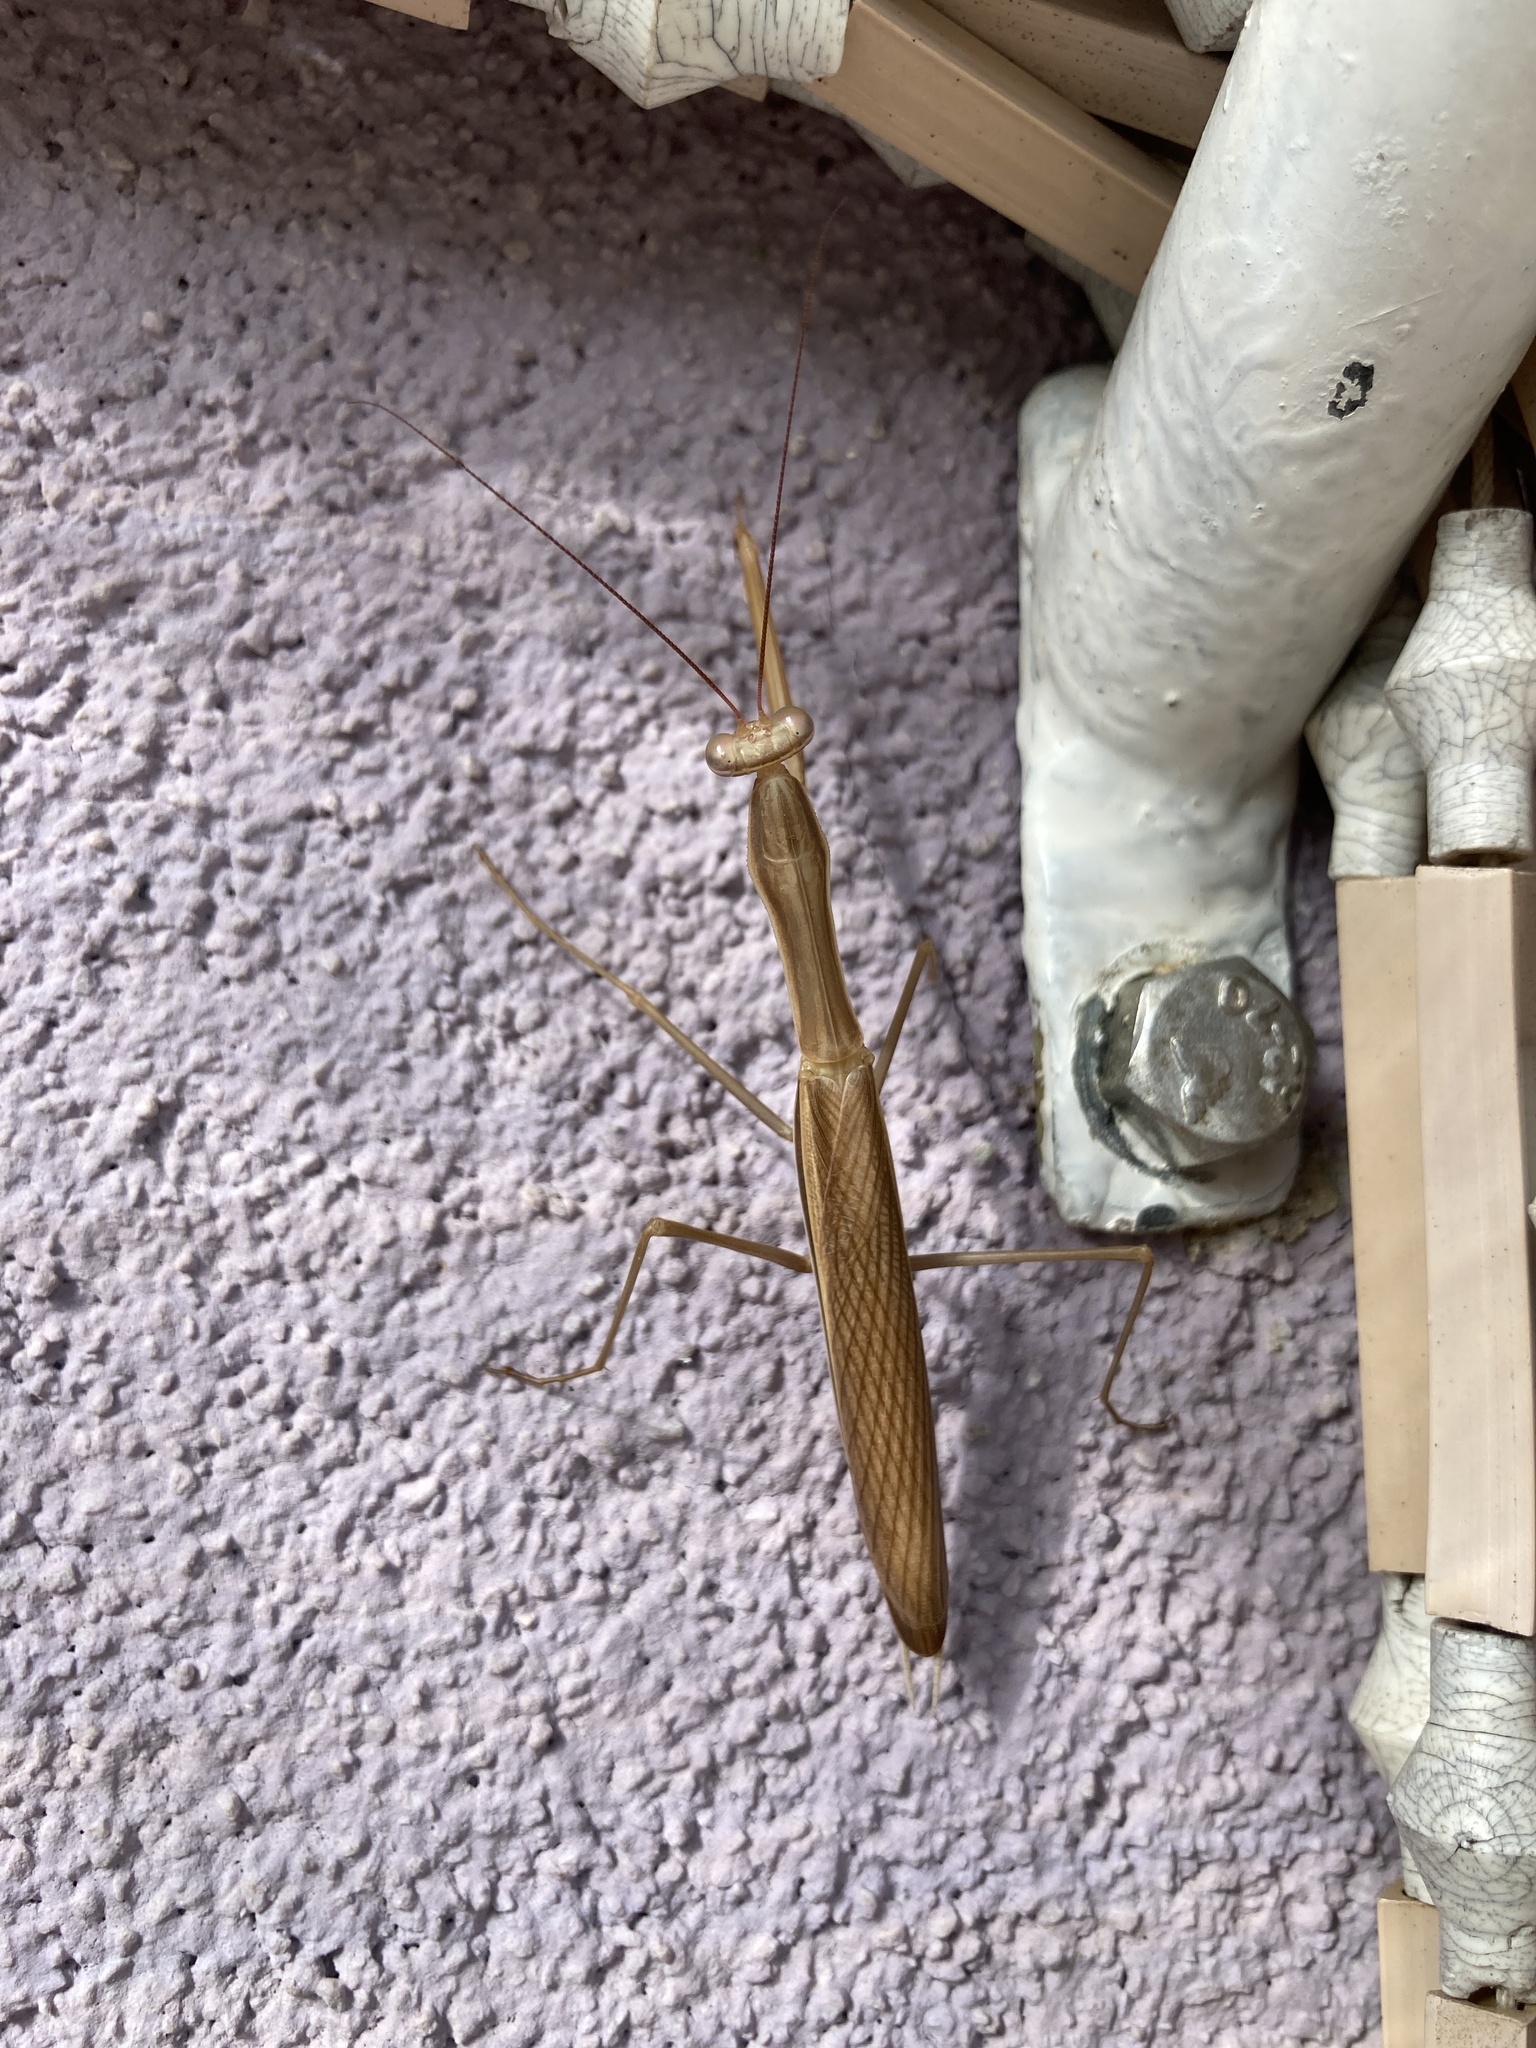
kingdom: Animalia
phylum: Arthropoda
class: Insecta
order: Mantodea
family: Mantidae
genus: Mantis
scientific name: Mantis religiosa
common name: Praying mantis
